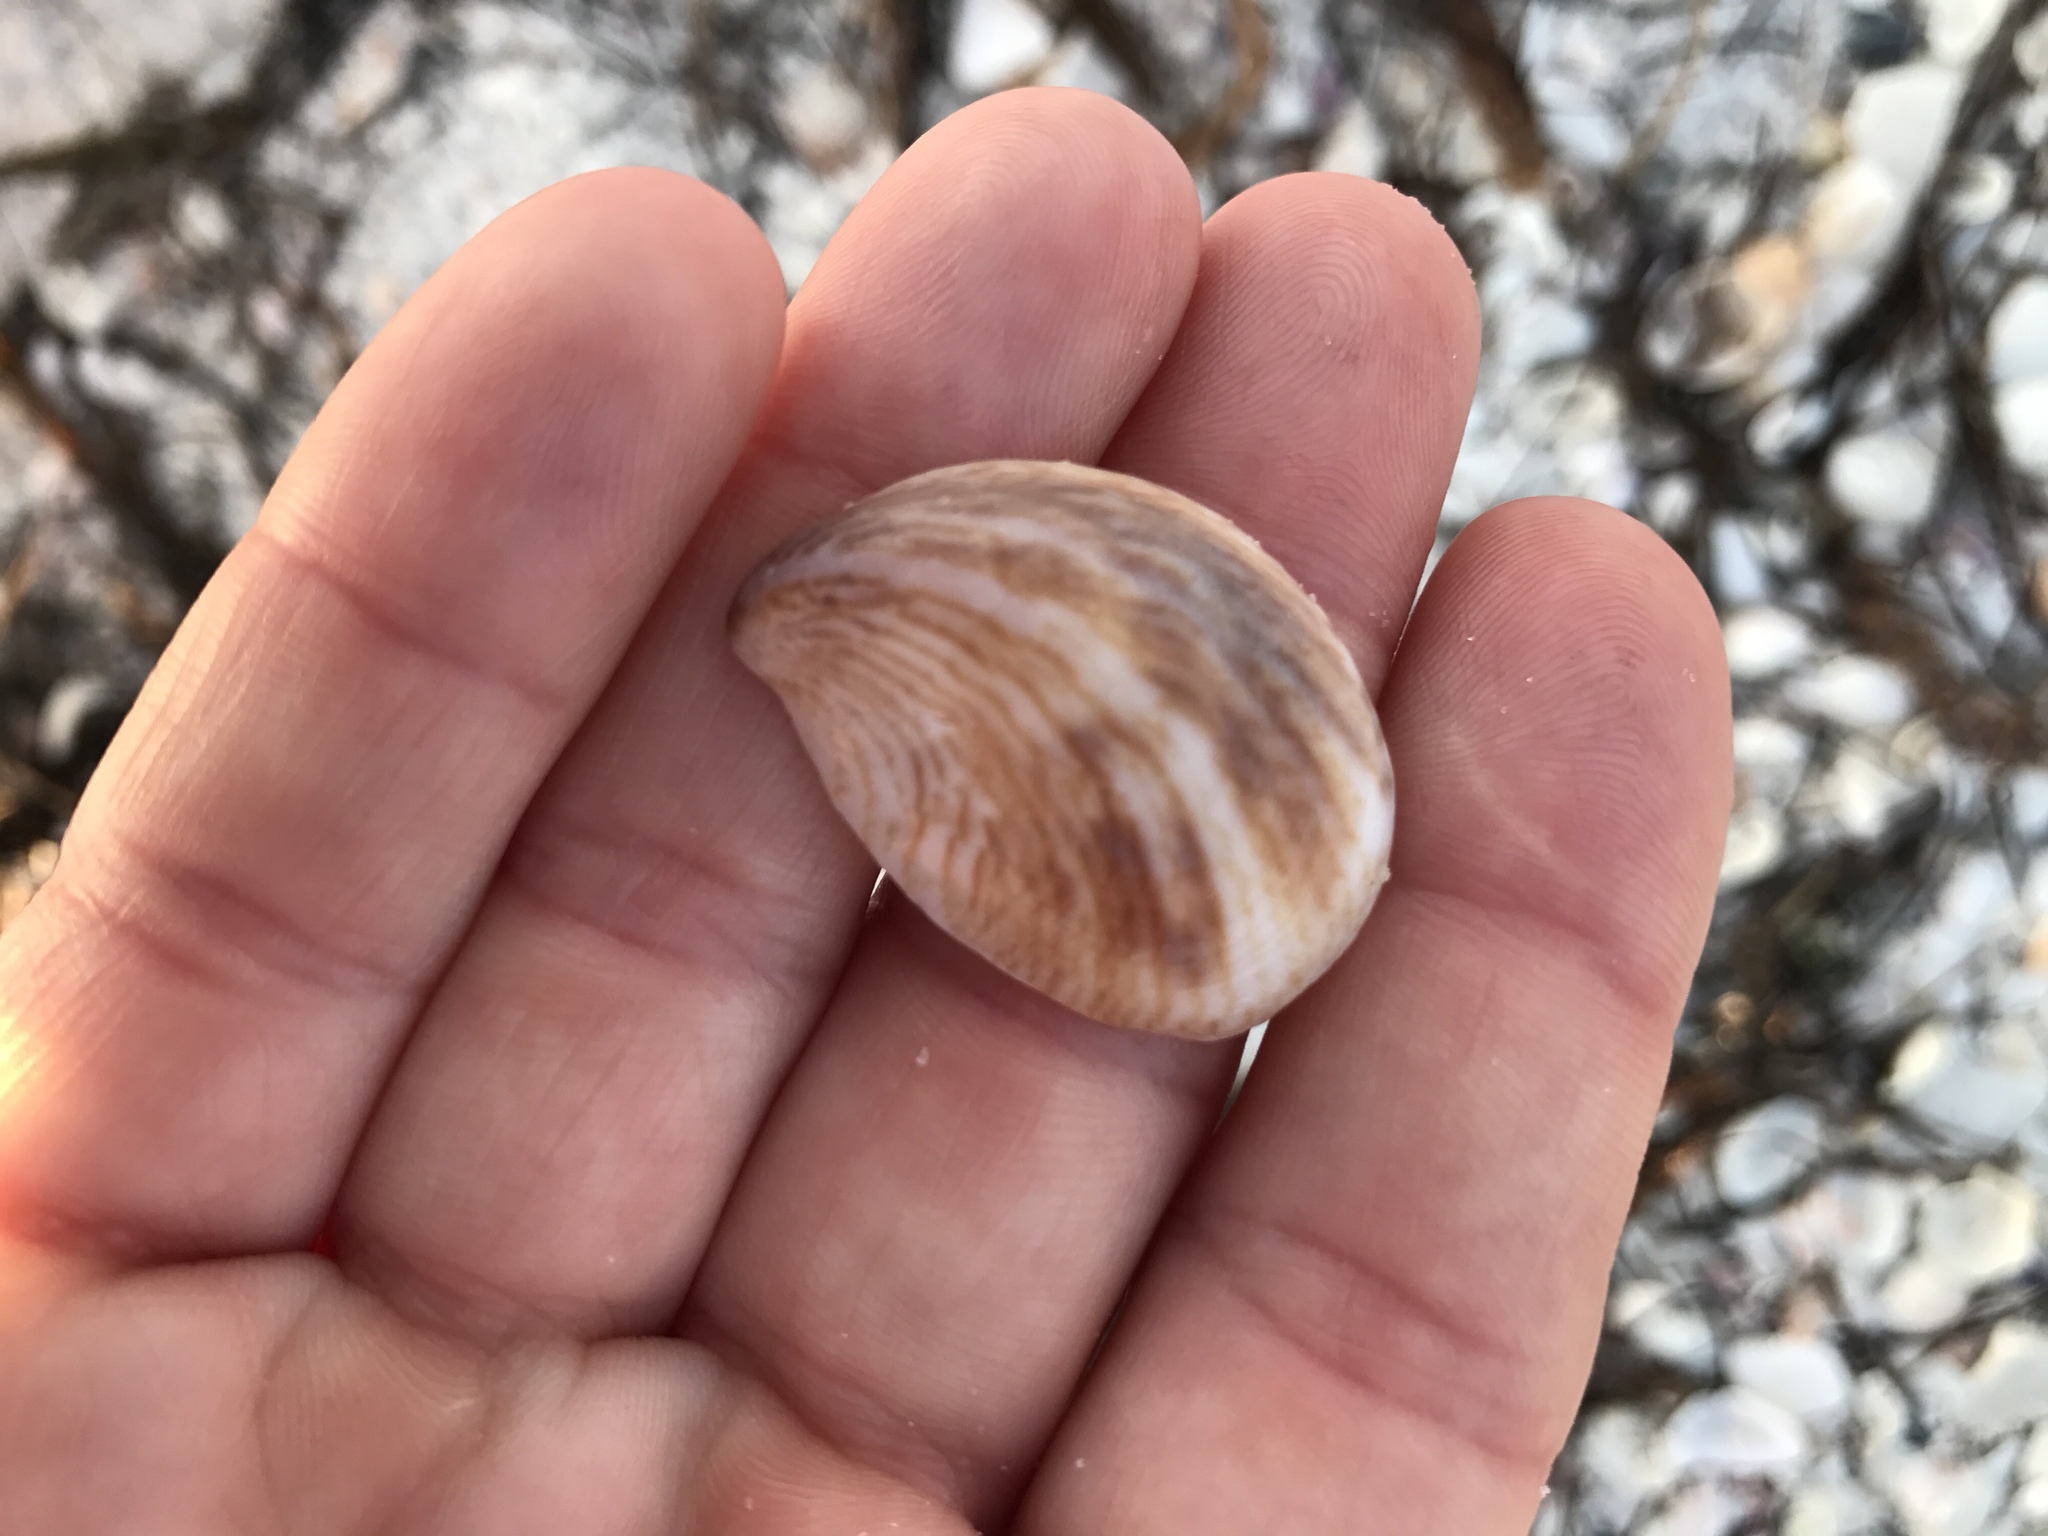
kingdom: Animalia
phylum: Mollusca
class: Gastropoda
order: Littorinimorpha
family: Calyptraeidae
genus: Crepidula
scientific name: Crepidula fornicata
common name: Slipper limpet
